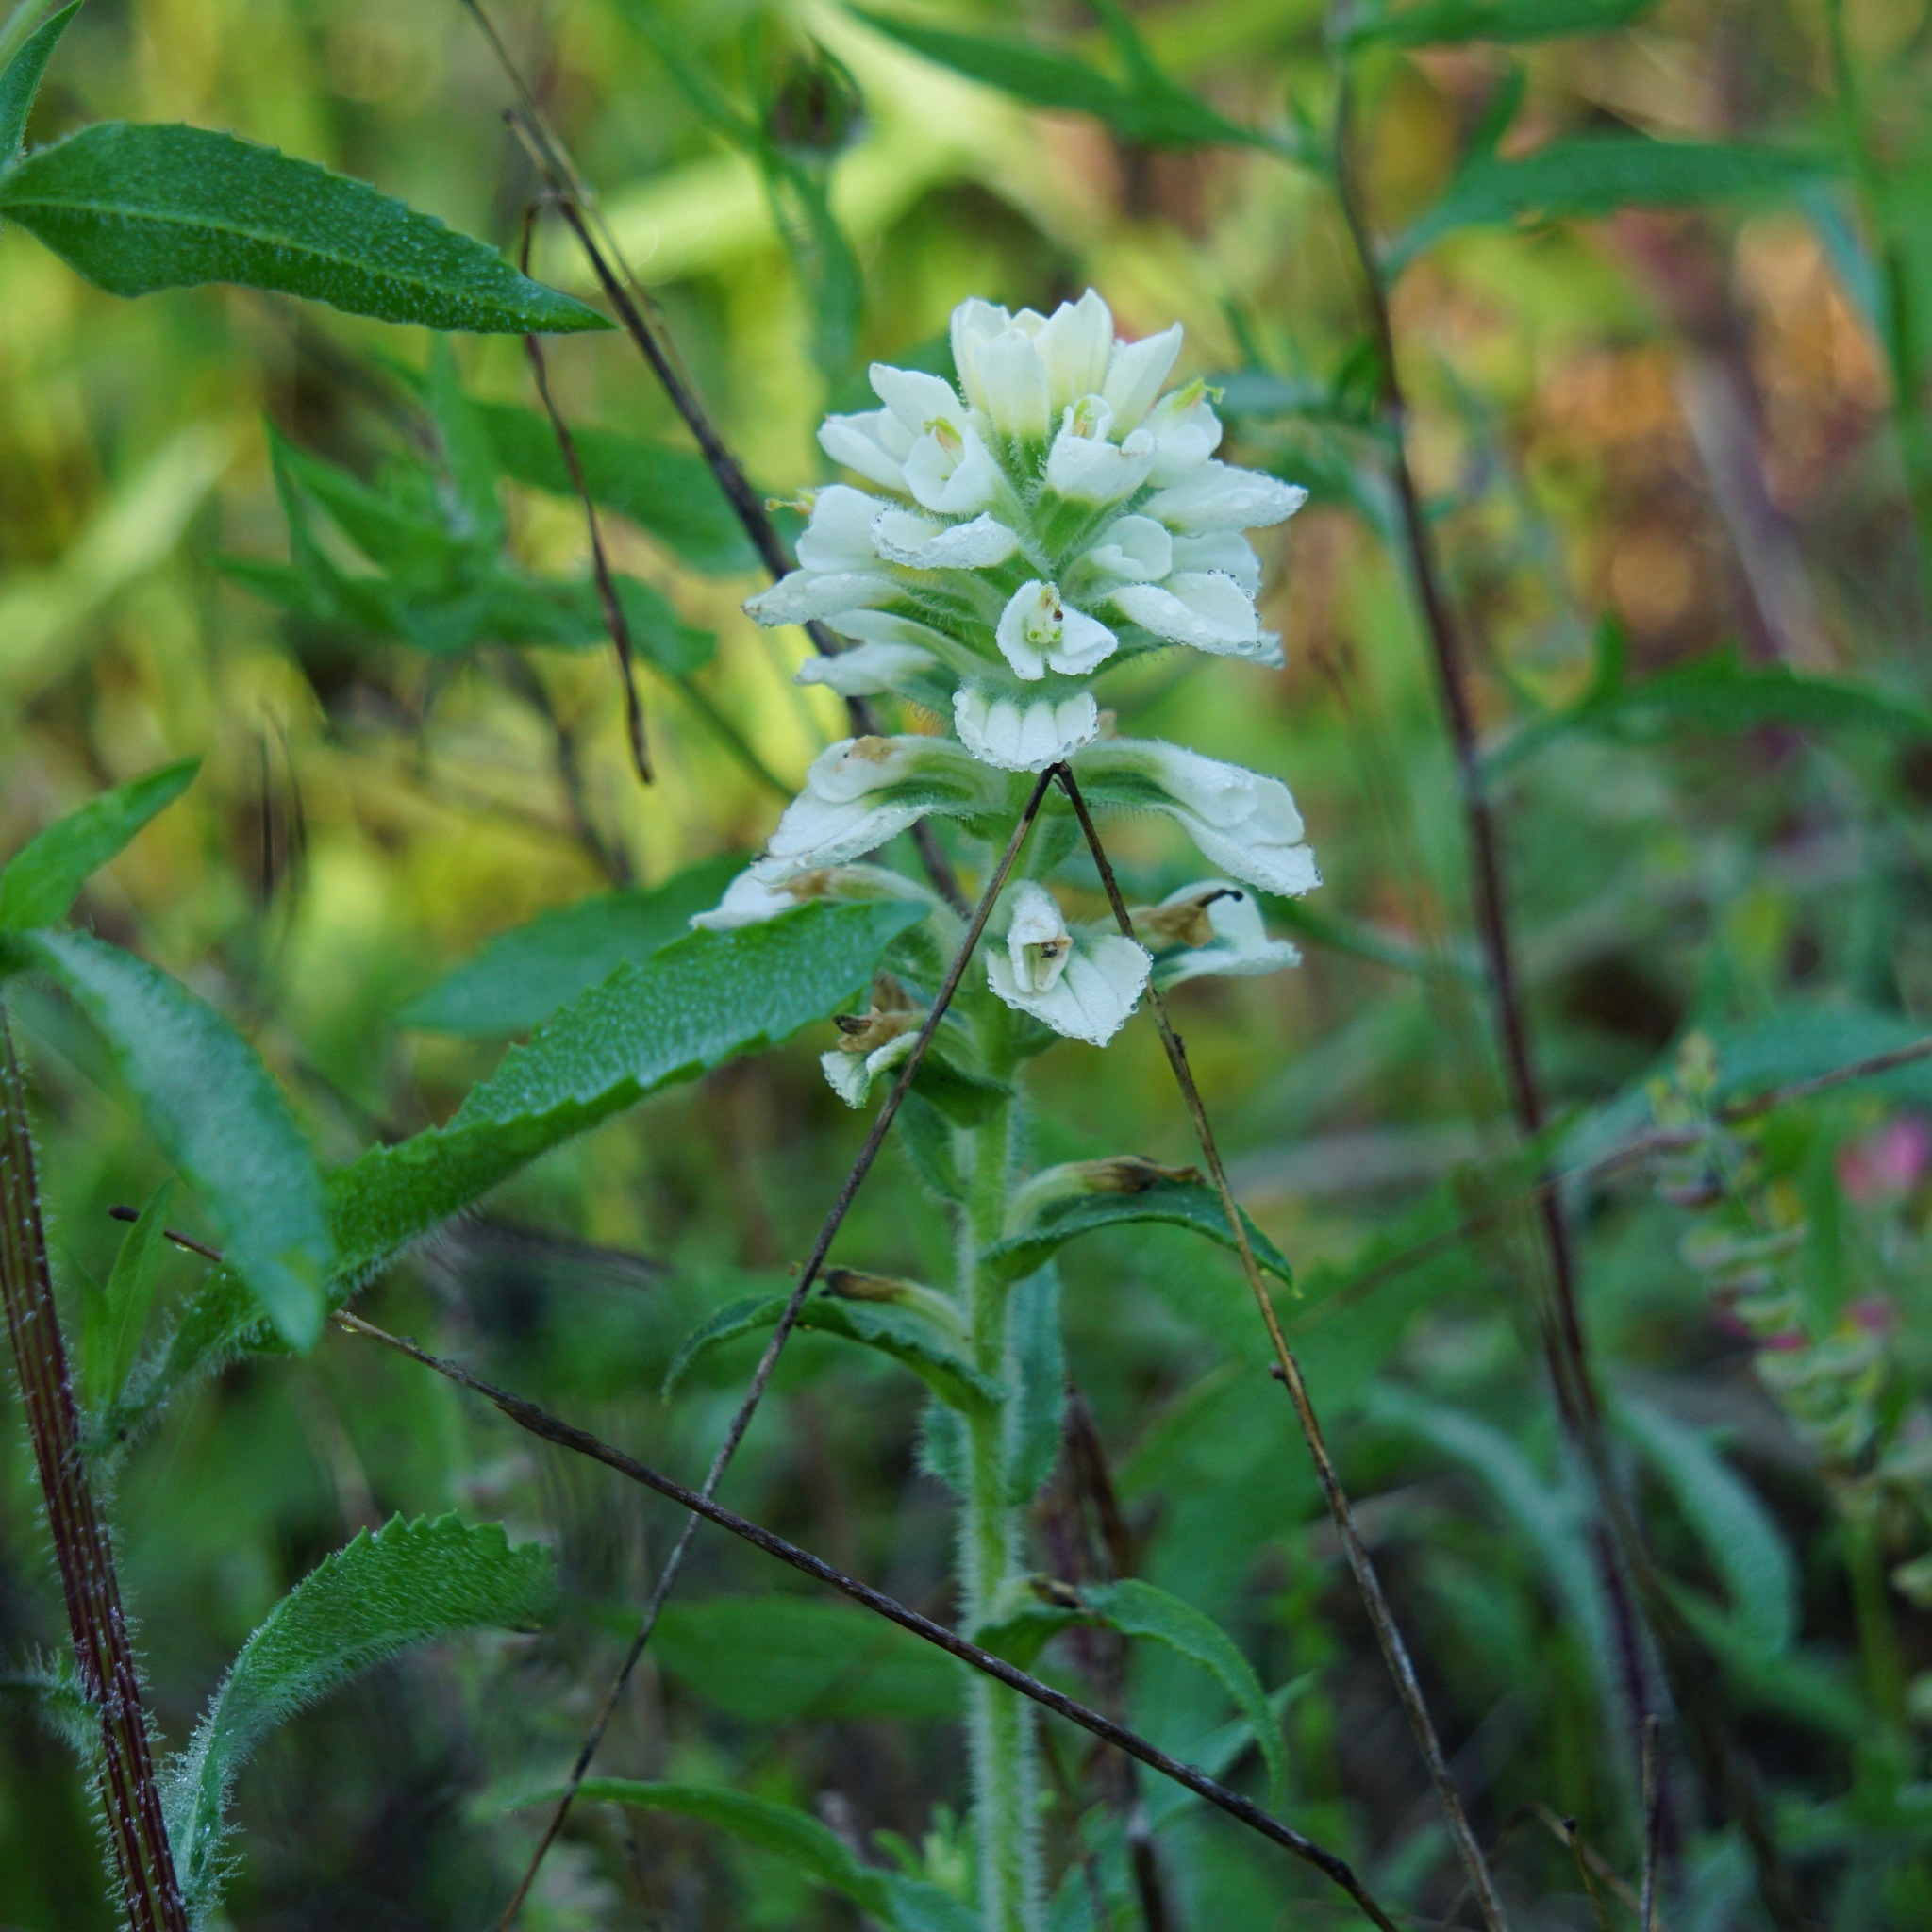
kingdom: Plantae
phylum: Tracheophyta
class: Magnoliopsida
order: Lamiales
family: Orobanchaceae
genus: Castilleja
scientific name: Castilleja indivisa
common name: Texas paintbrush
